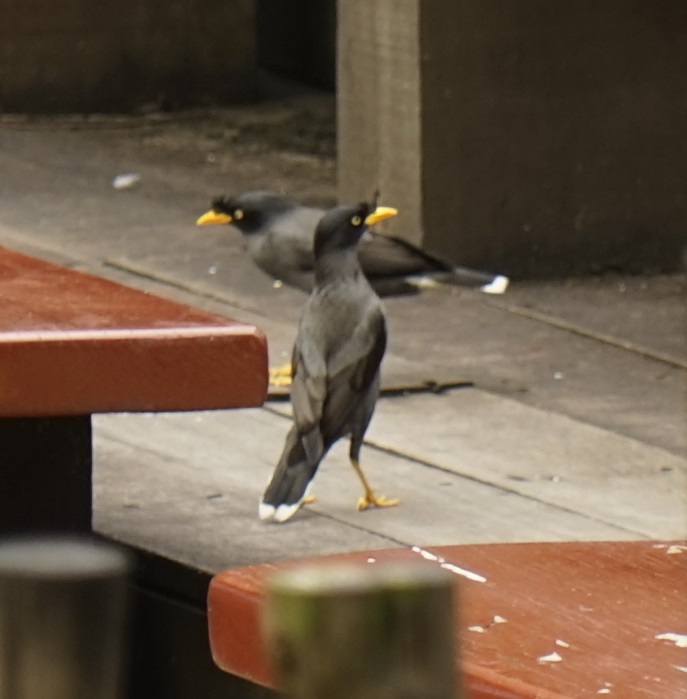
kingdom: Animalia
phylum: Chordata
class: Aves
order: Passeriformes
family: Sturnidae
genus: Acridotheres
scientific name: Acridotheres javanicus
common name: Javan myna
